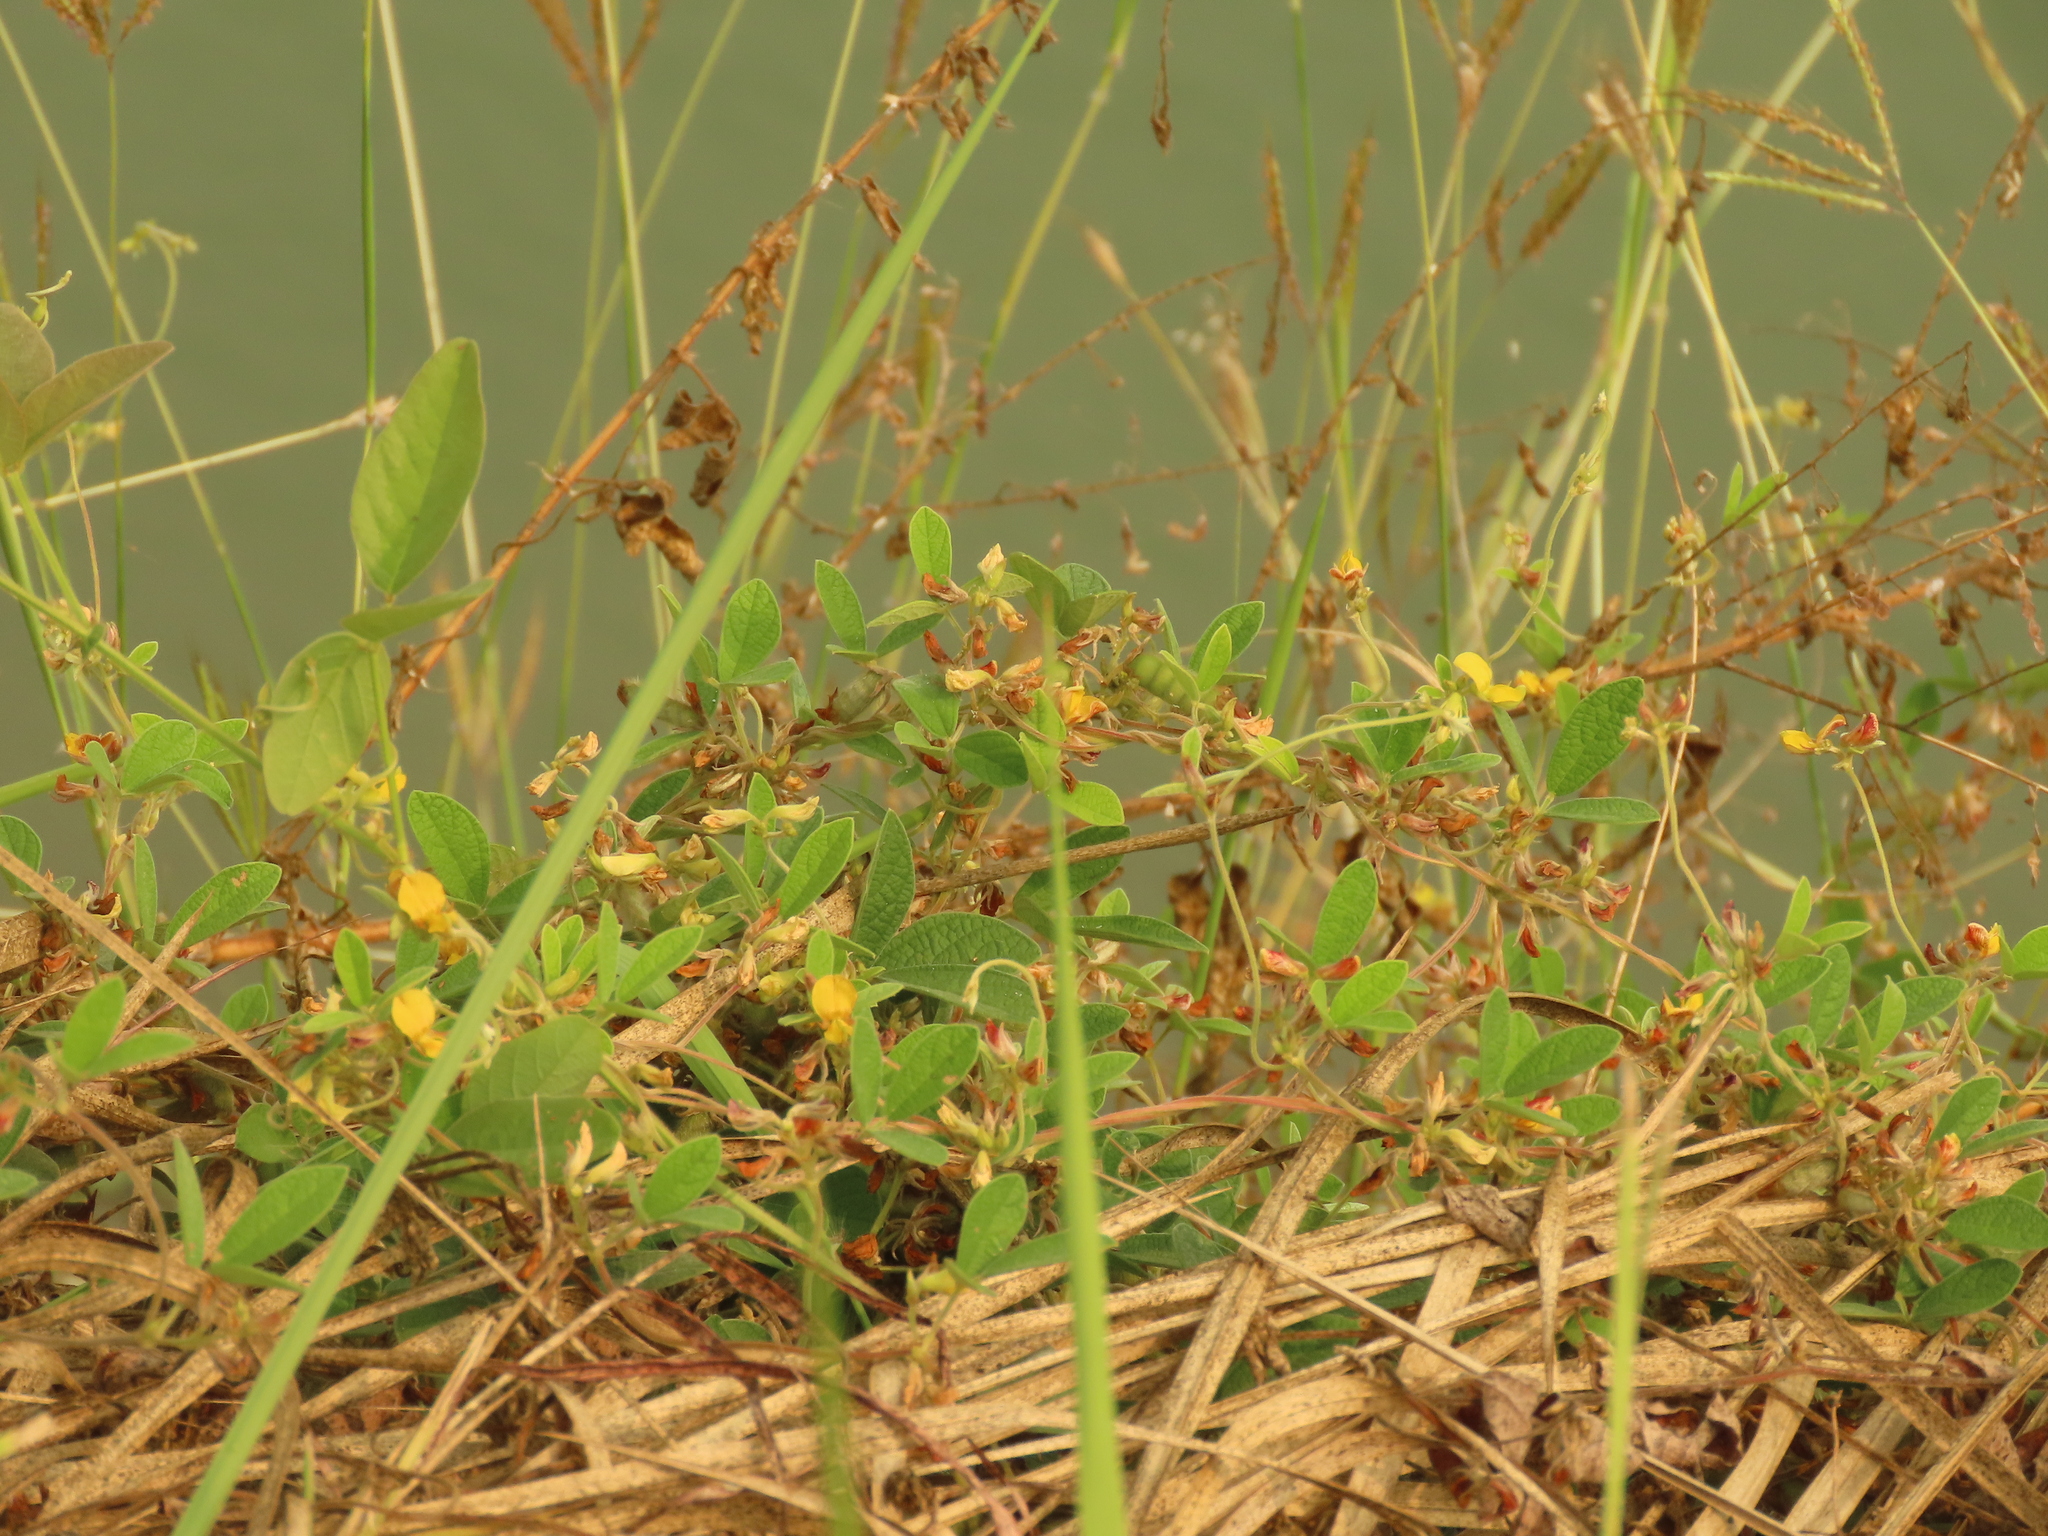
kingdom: Plantae
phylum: Tracheophyta
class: Magnoliopsida
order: Fabales
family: Fabaceae
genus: Cajanus
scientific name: Cajanus scarabaeoides
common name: Showy pigeonpea
